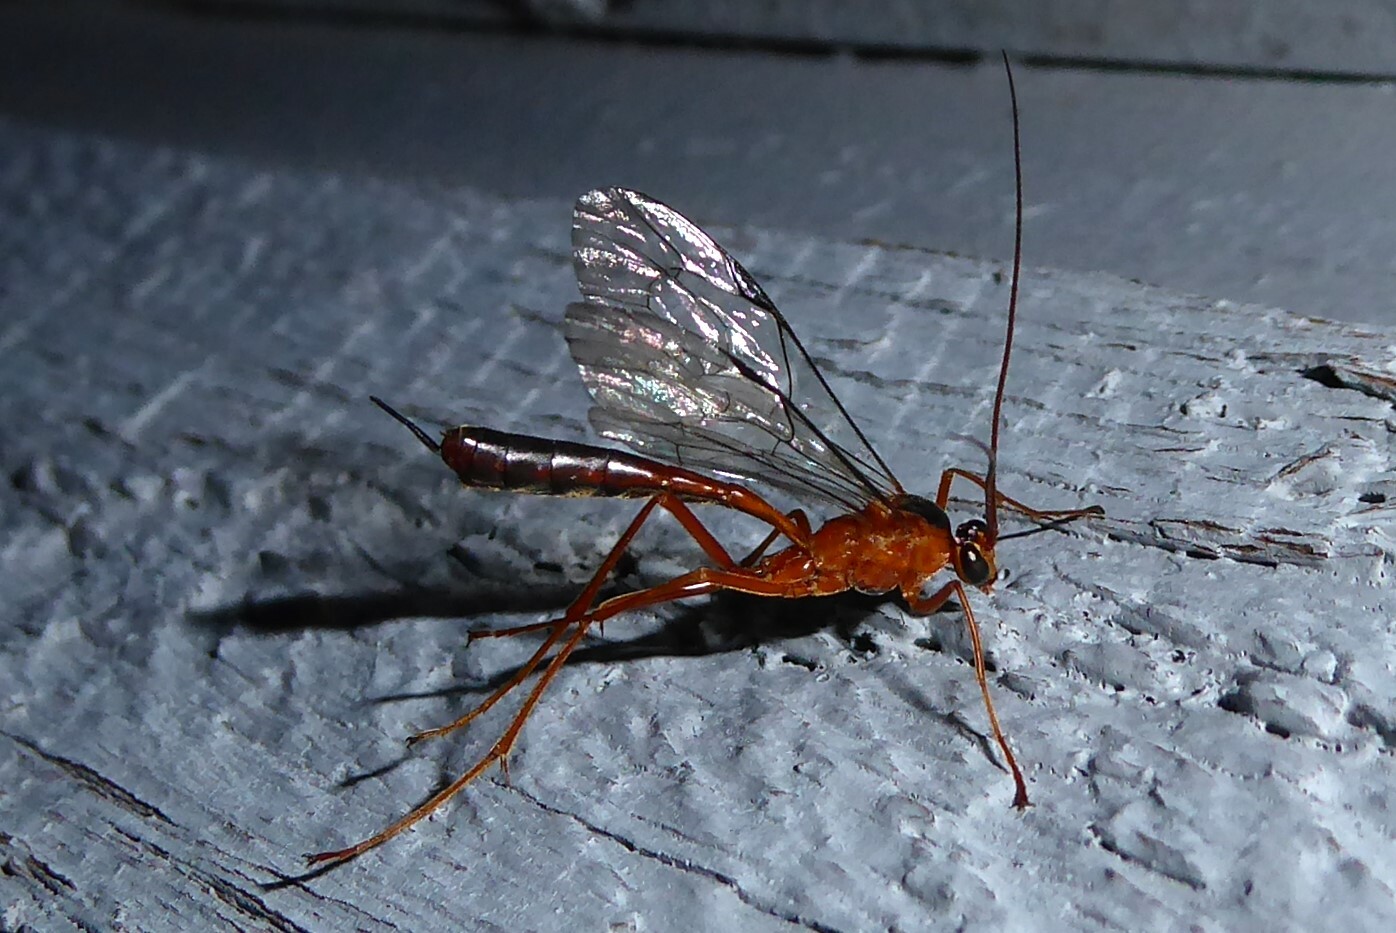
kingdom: Animalia
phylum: Arthropoda
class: Insecta
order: Hymenoptera
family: Ichneumonidae
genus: Netelia
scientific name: Netelia ephippiata
